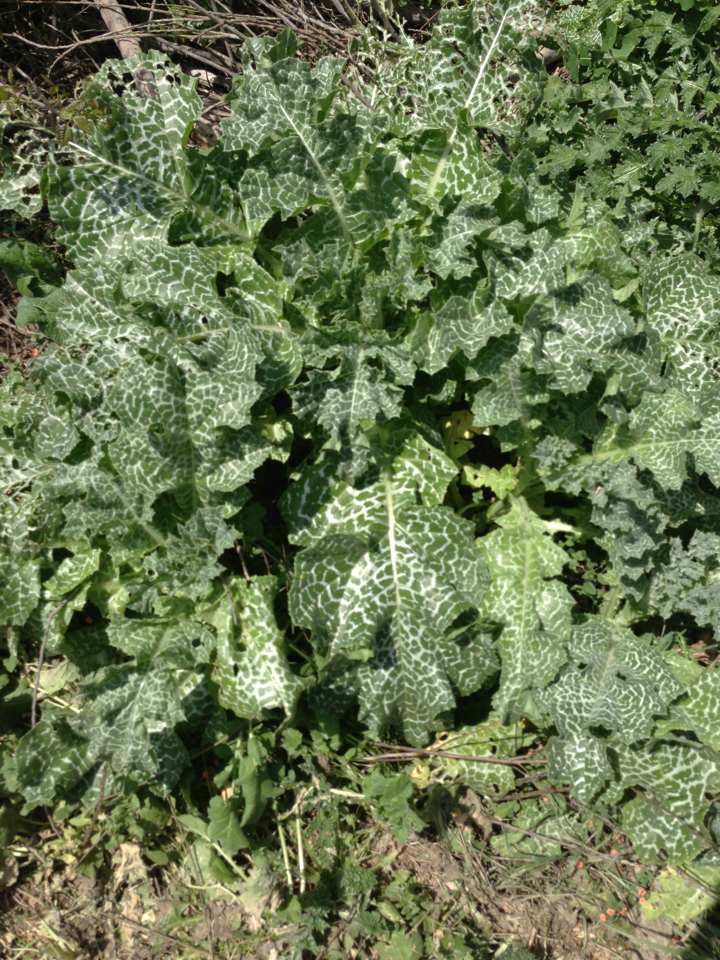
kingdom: Plantae
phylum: Tracheophyta
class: Magnoliopsida
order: Asterales
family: Asteraceae
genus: Silybum
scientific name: Silybum marianum
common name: Milk thistle
